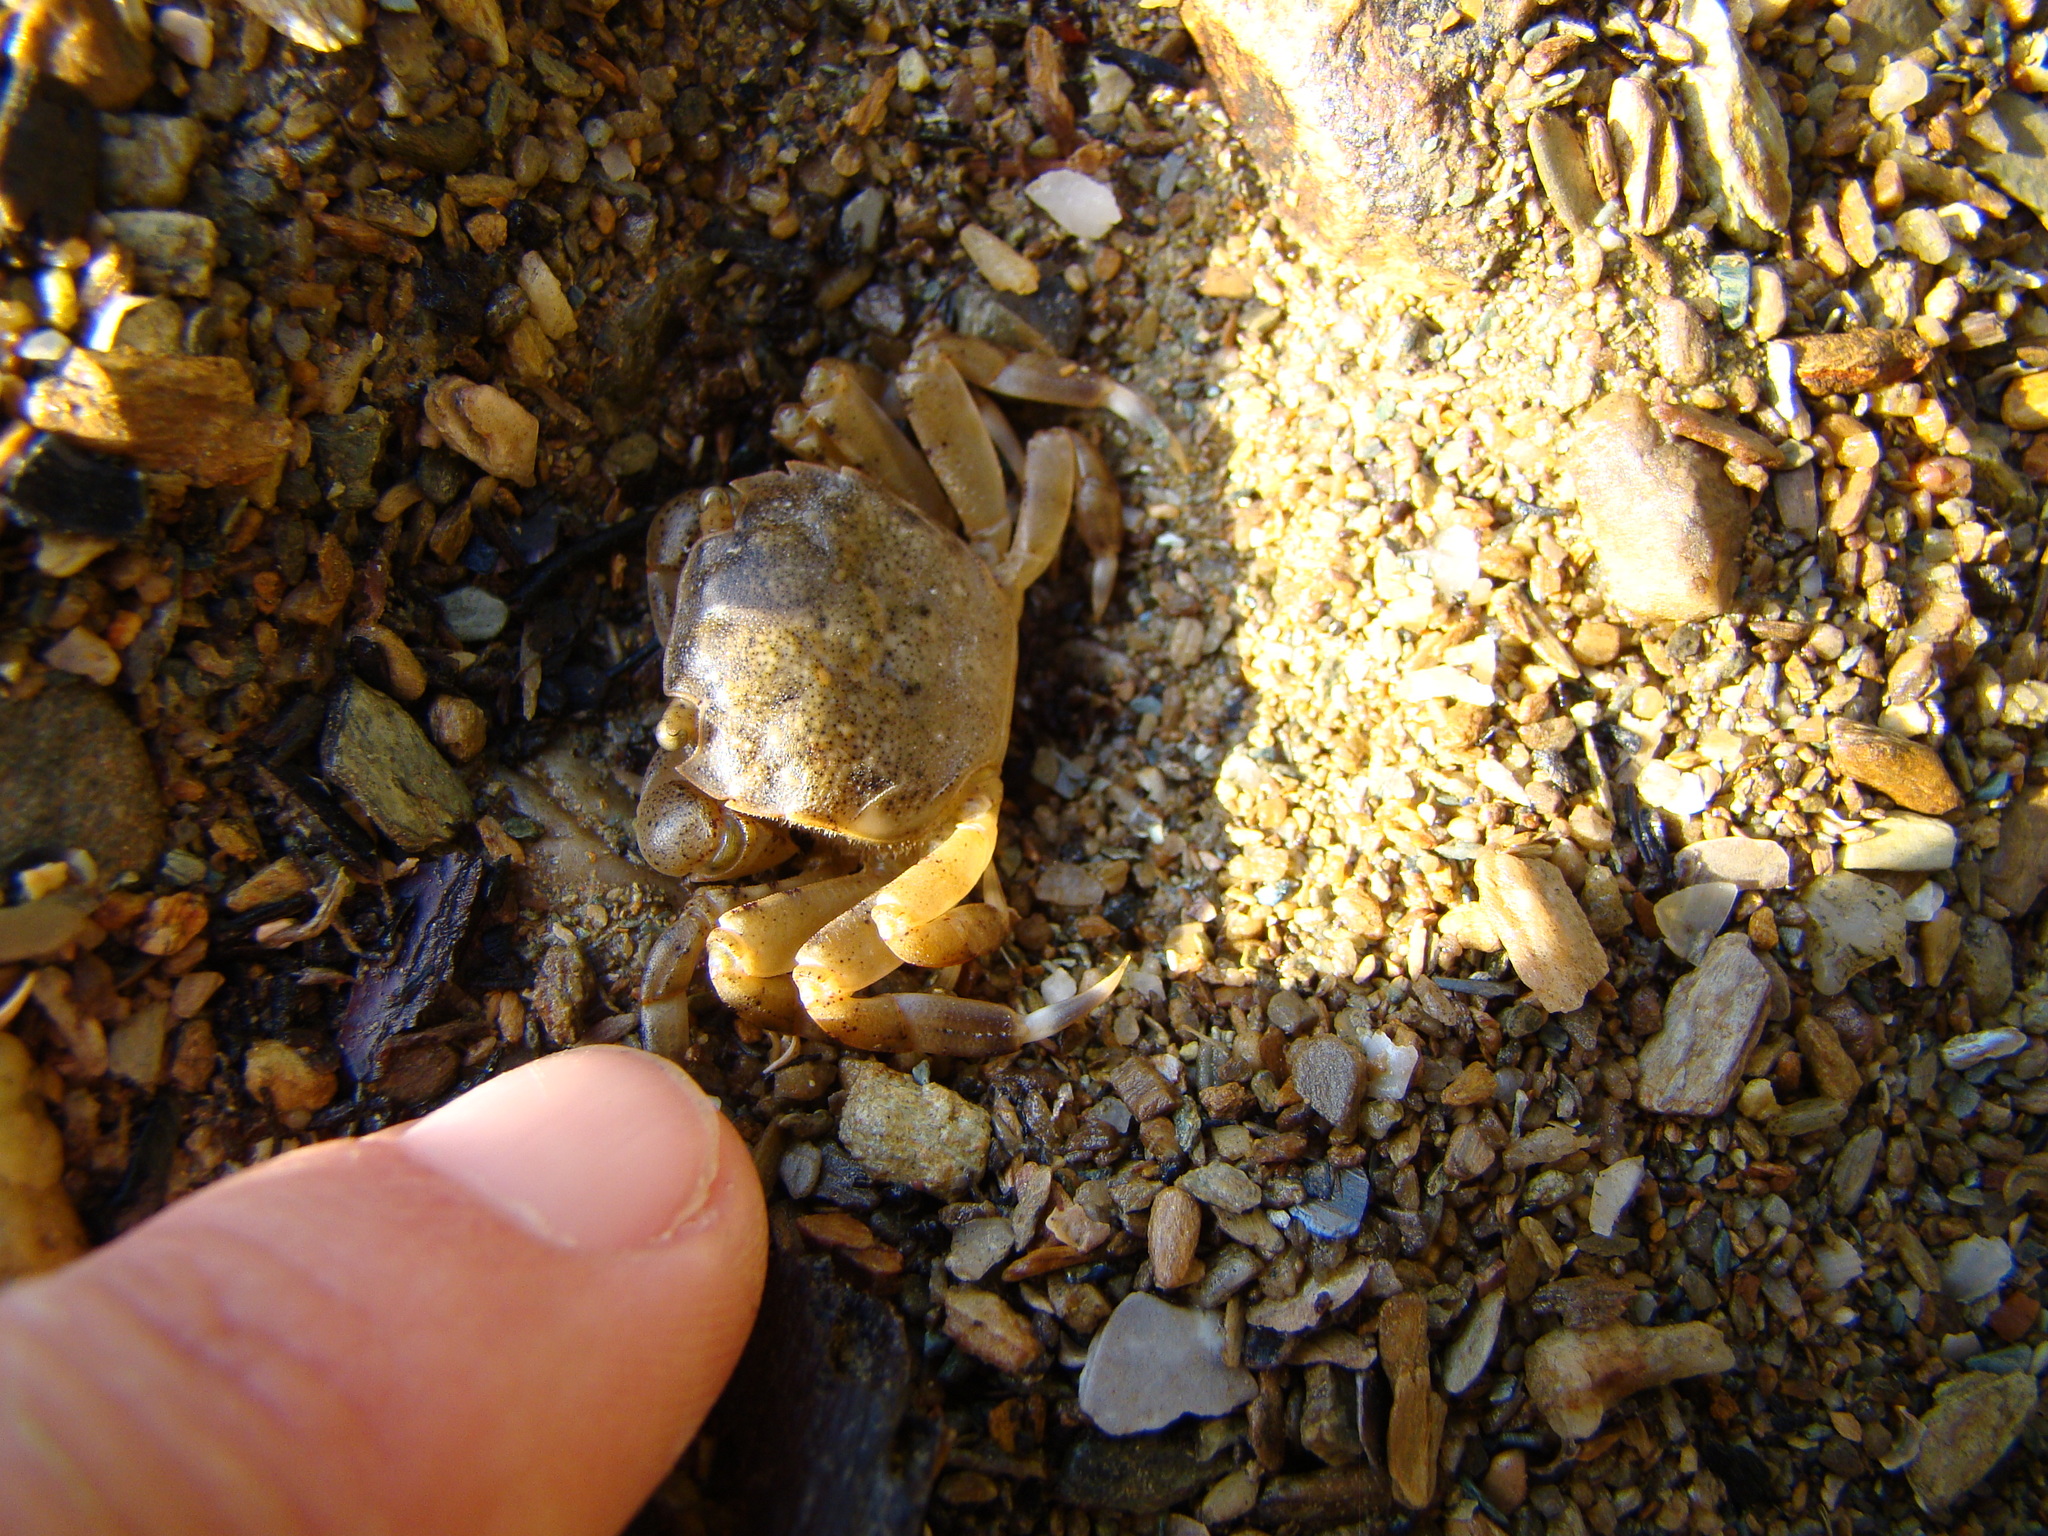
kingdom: Animalia
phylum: Arthropoda
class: Malacostraca
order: Decapoda
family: Varunidae
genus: Hemigrapsus
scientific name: Hemigrapsus crenulatus
